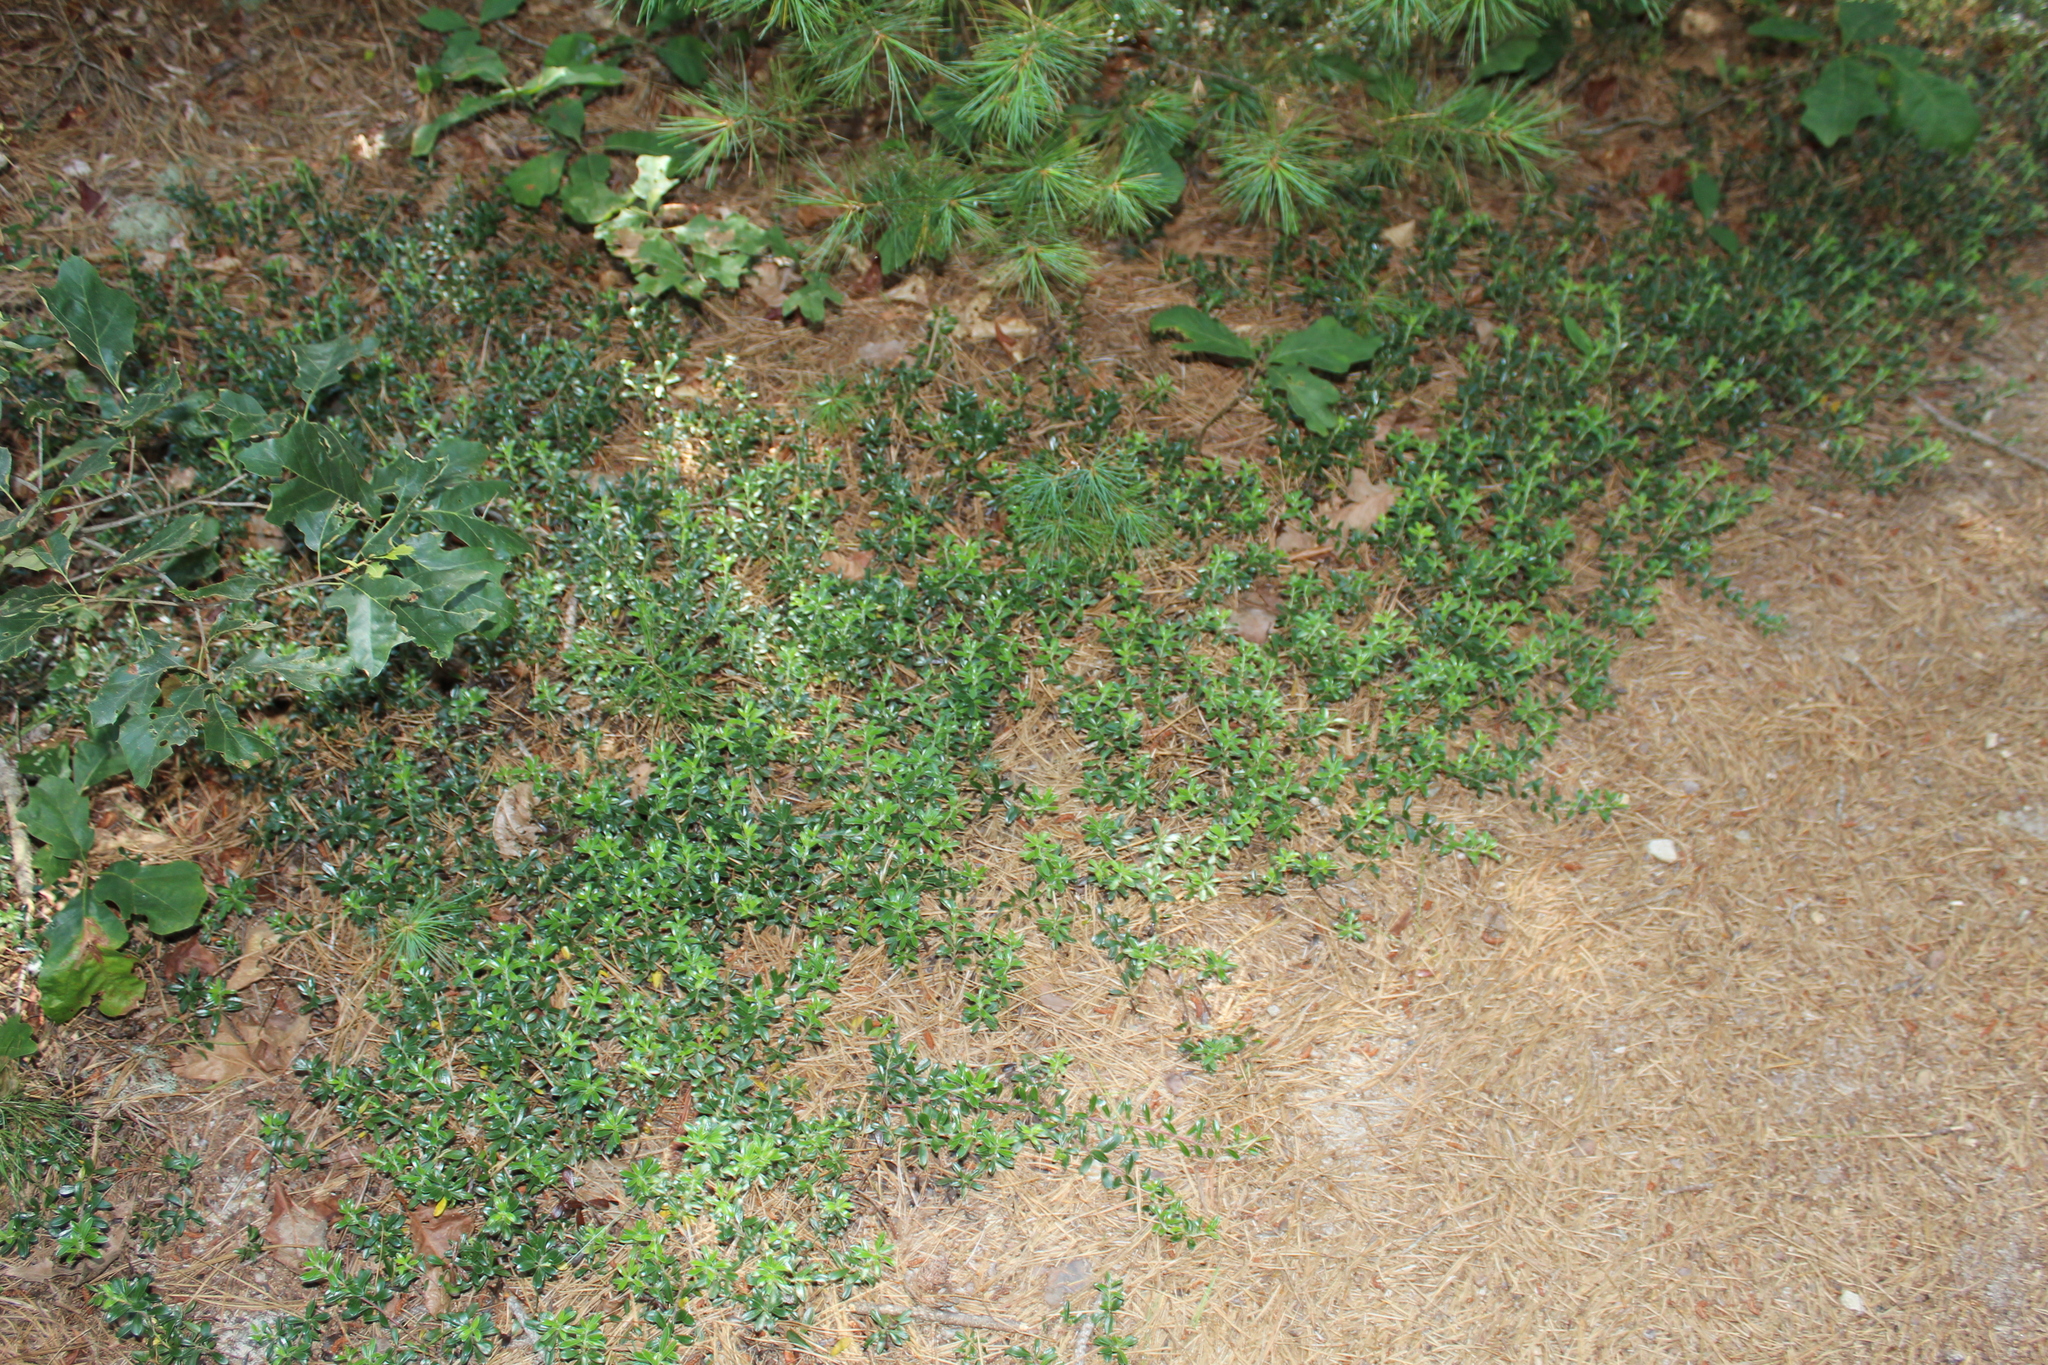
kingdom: Plantae
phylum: Tracheophyta
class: Magnoliopsida
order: Ericales
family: Ericaceae
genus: Arctostaphylos
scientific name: Arctostaphylos uva-ursi
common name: Bearberry
